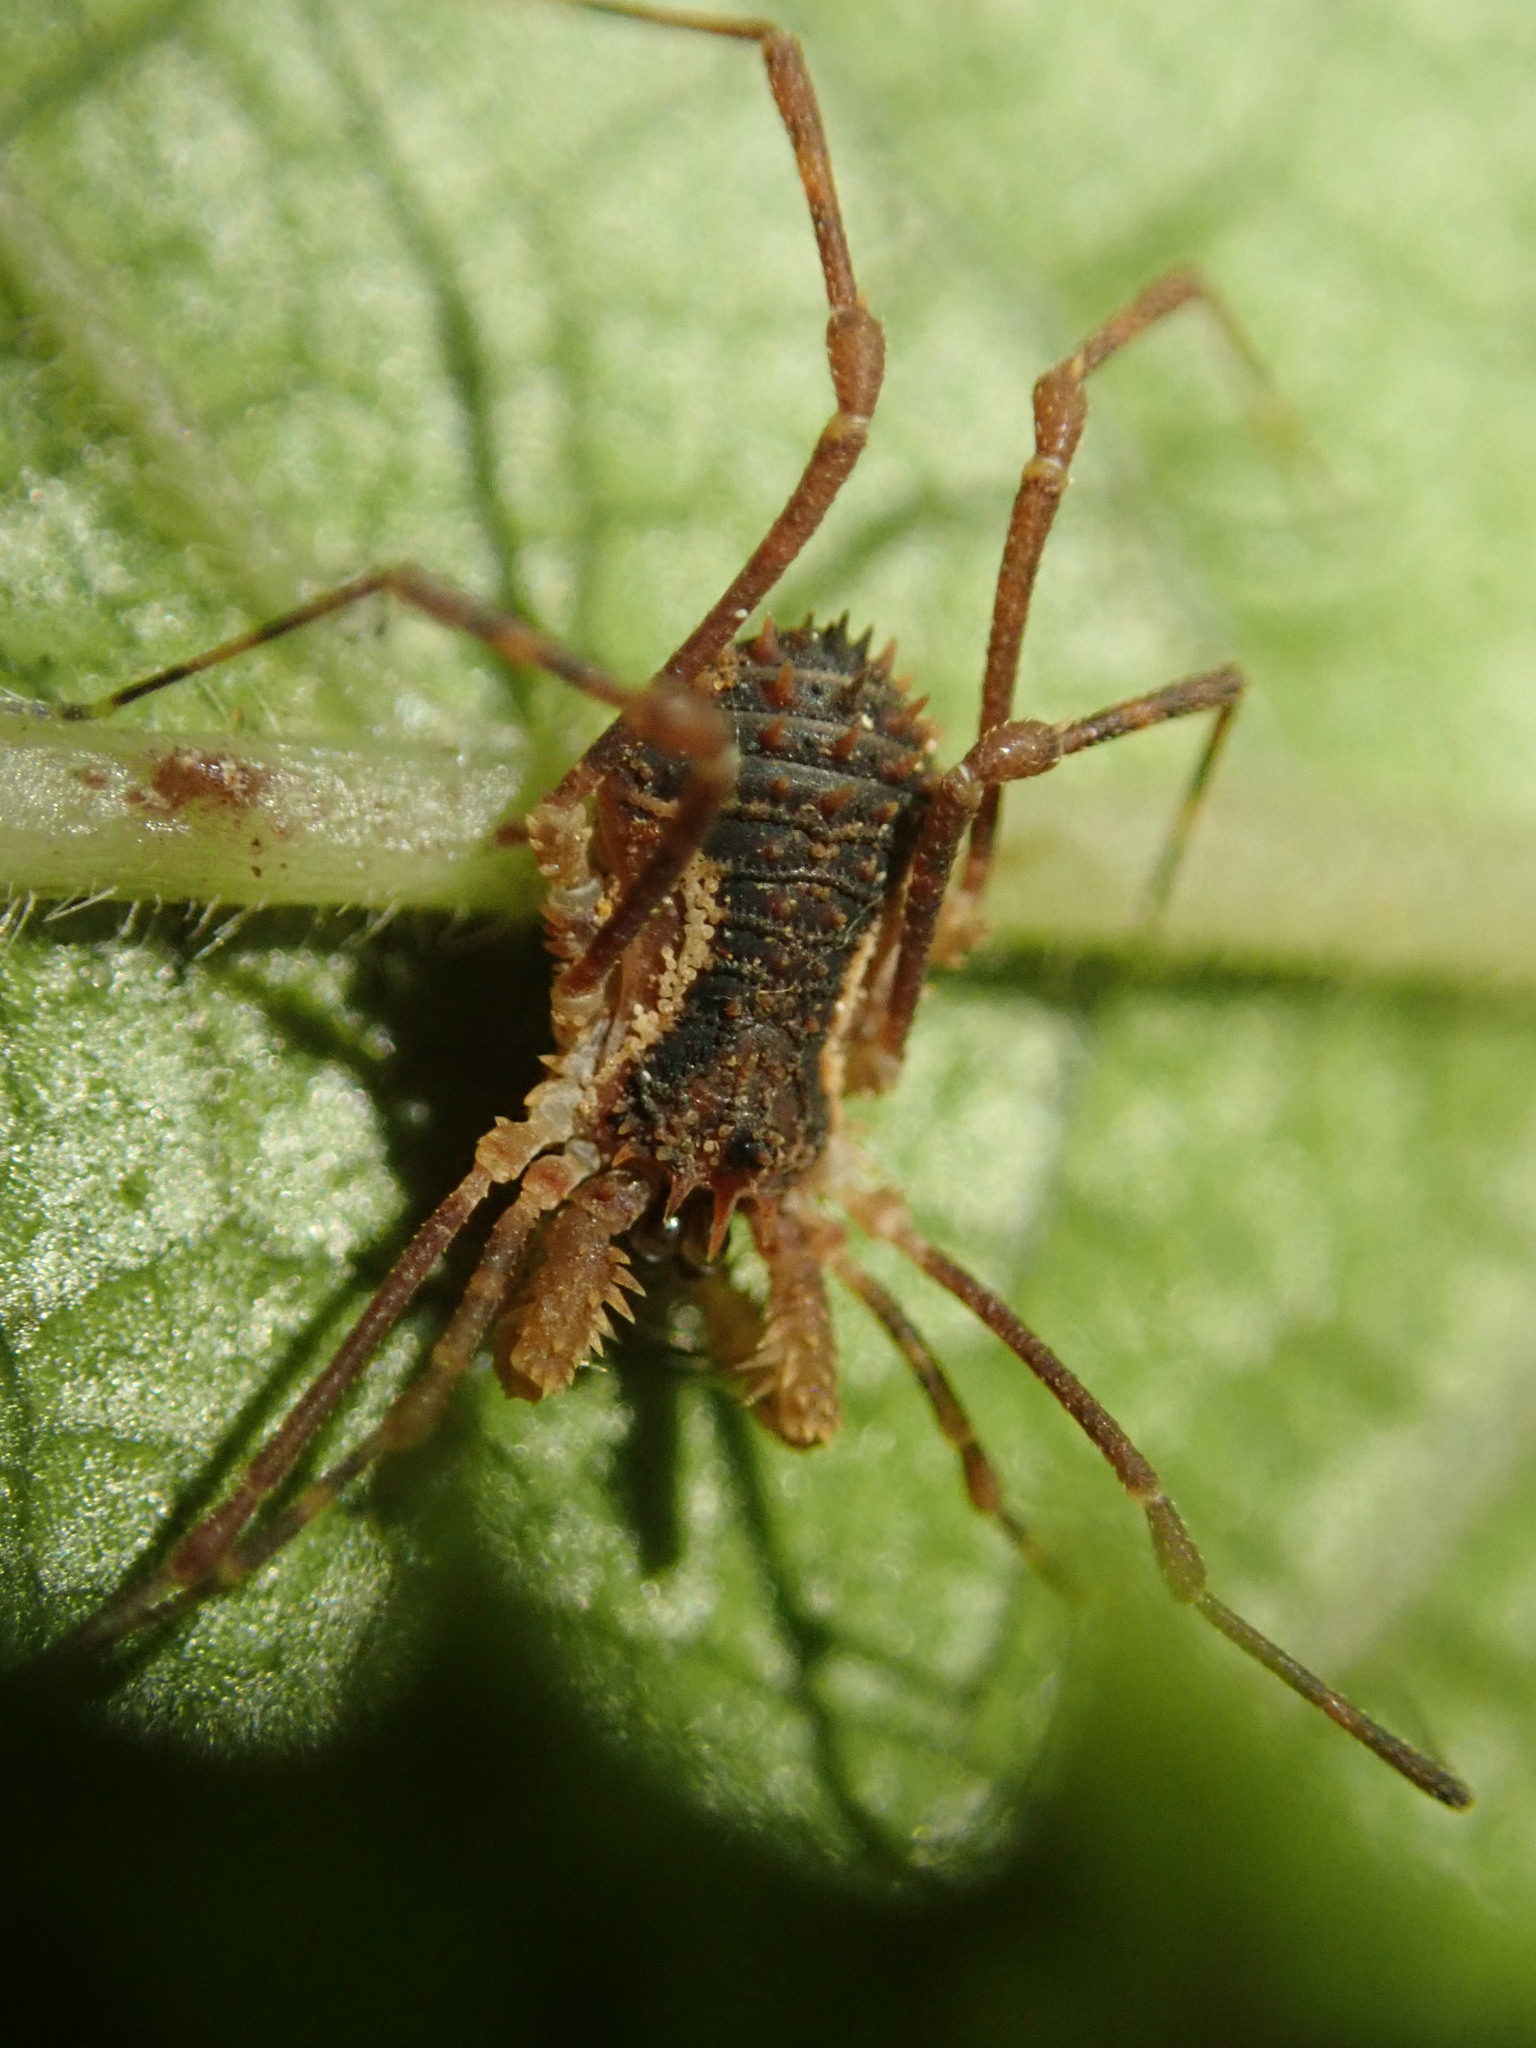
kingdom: Animalia
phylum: Arthropoda
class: Arachnida
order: Opiliones
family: Triaenonychidae
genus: Algidia
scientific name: Algidia chiltoni
